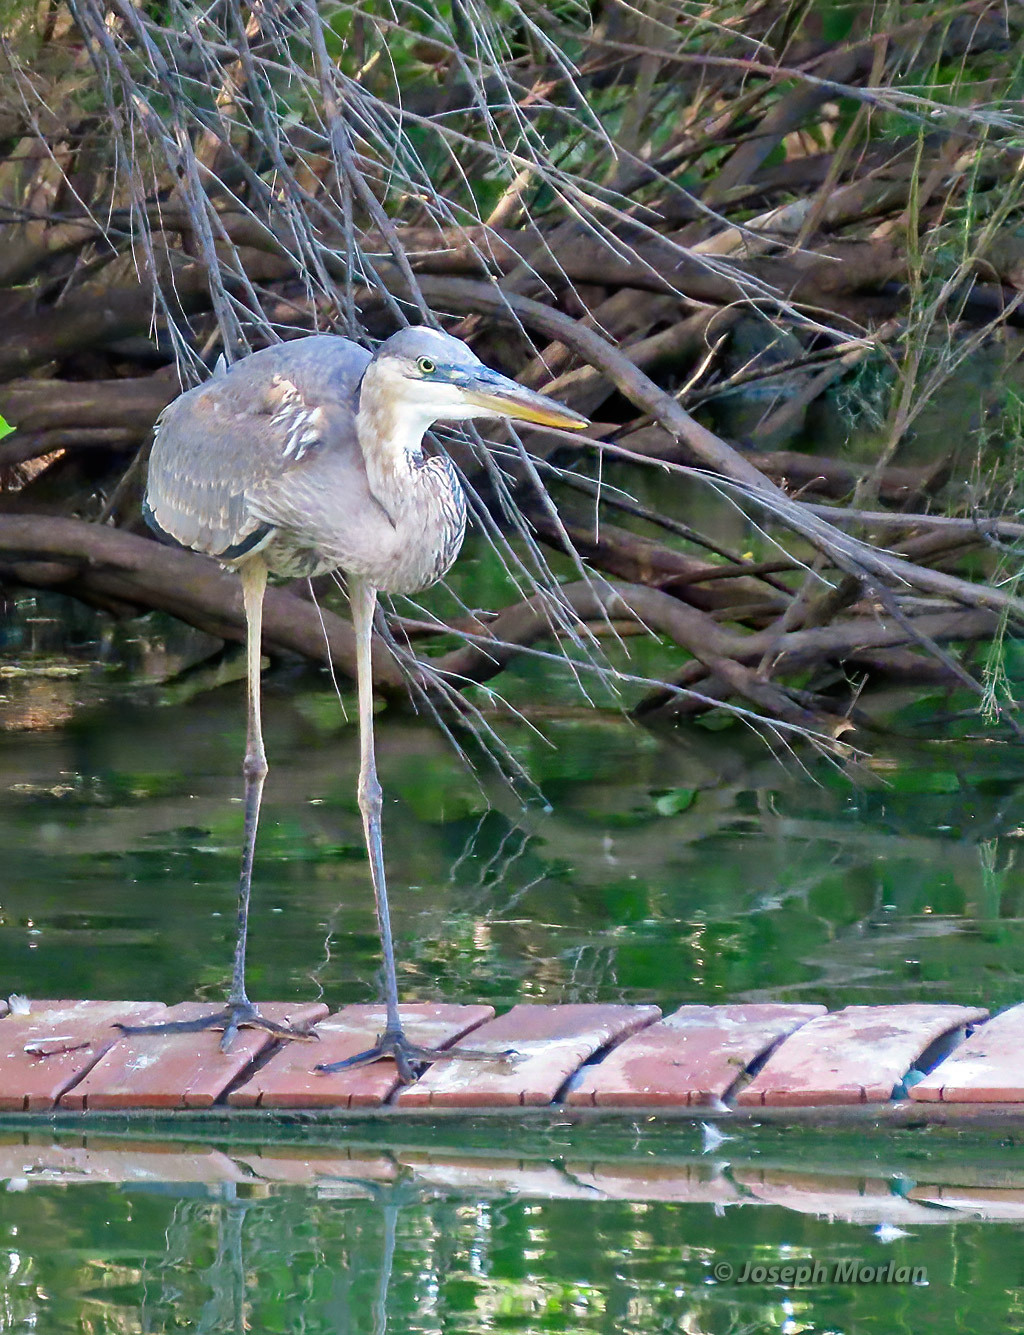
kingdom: Animalia
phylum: Chordata
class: Aves
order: Pelecaniformes
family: Ardeidae
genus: Ardea
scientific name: Ardea herodias
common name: Great blue heron
